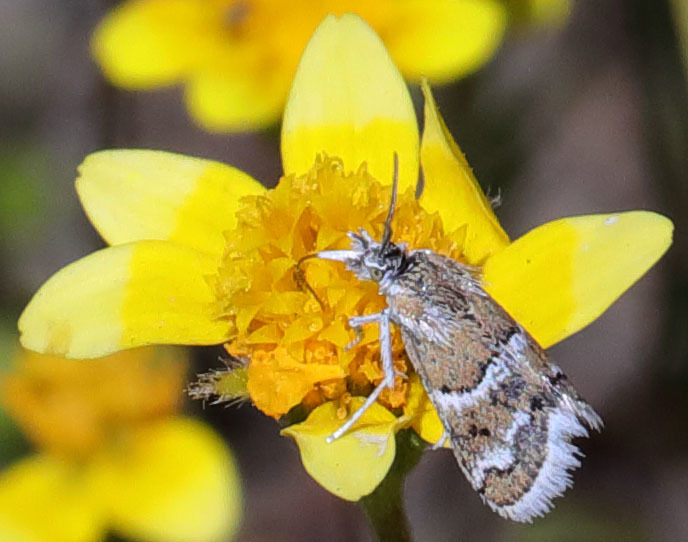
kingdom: Animalia
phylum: Arthropoda
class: Insecta
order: Lepidoptera
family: Crambidae
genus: Nannobotys
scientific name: Nannobotys commortalis
